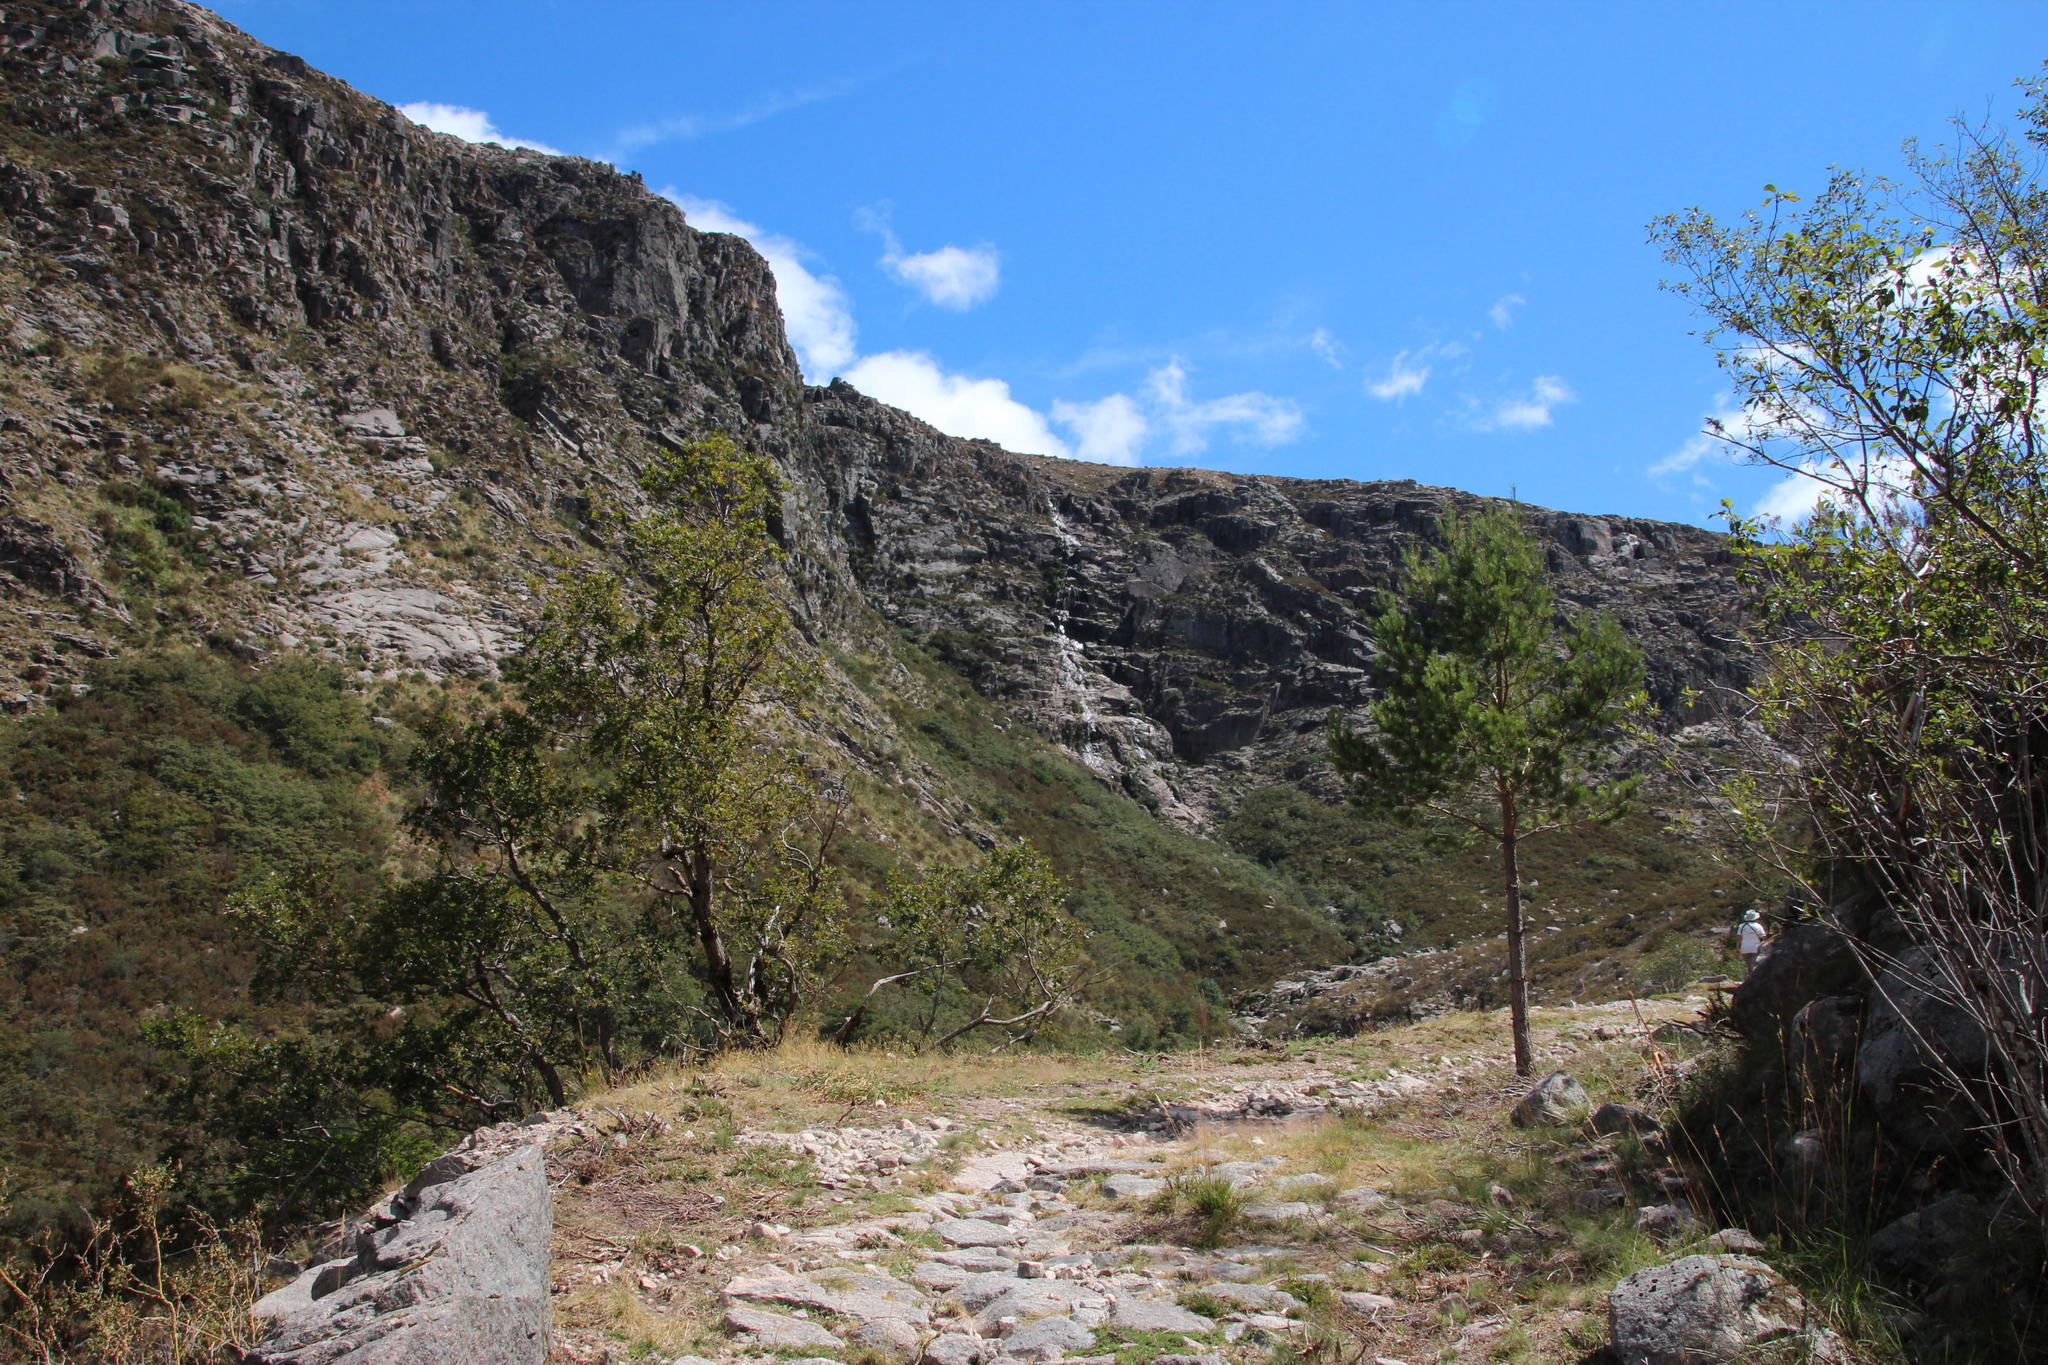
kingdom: Plantae
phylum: Tracheophyta
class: Pinopsida
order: Pinales
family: Pinaceae
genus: Pinus
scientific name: Pinus sylvestris
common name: Scots pine
